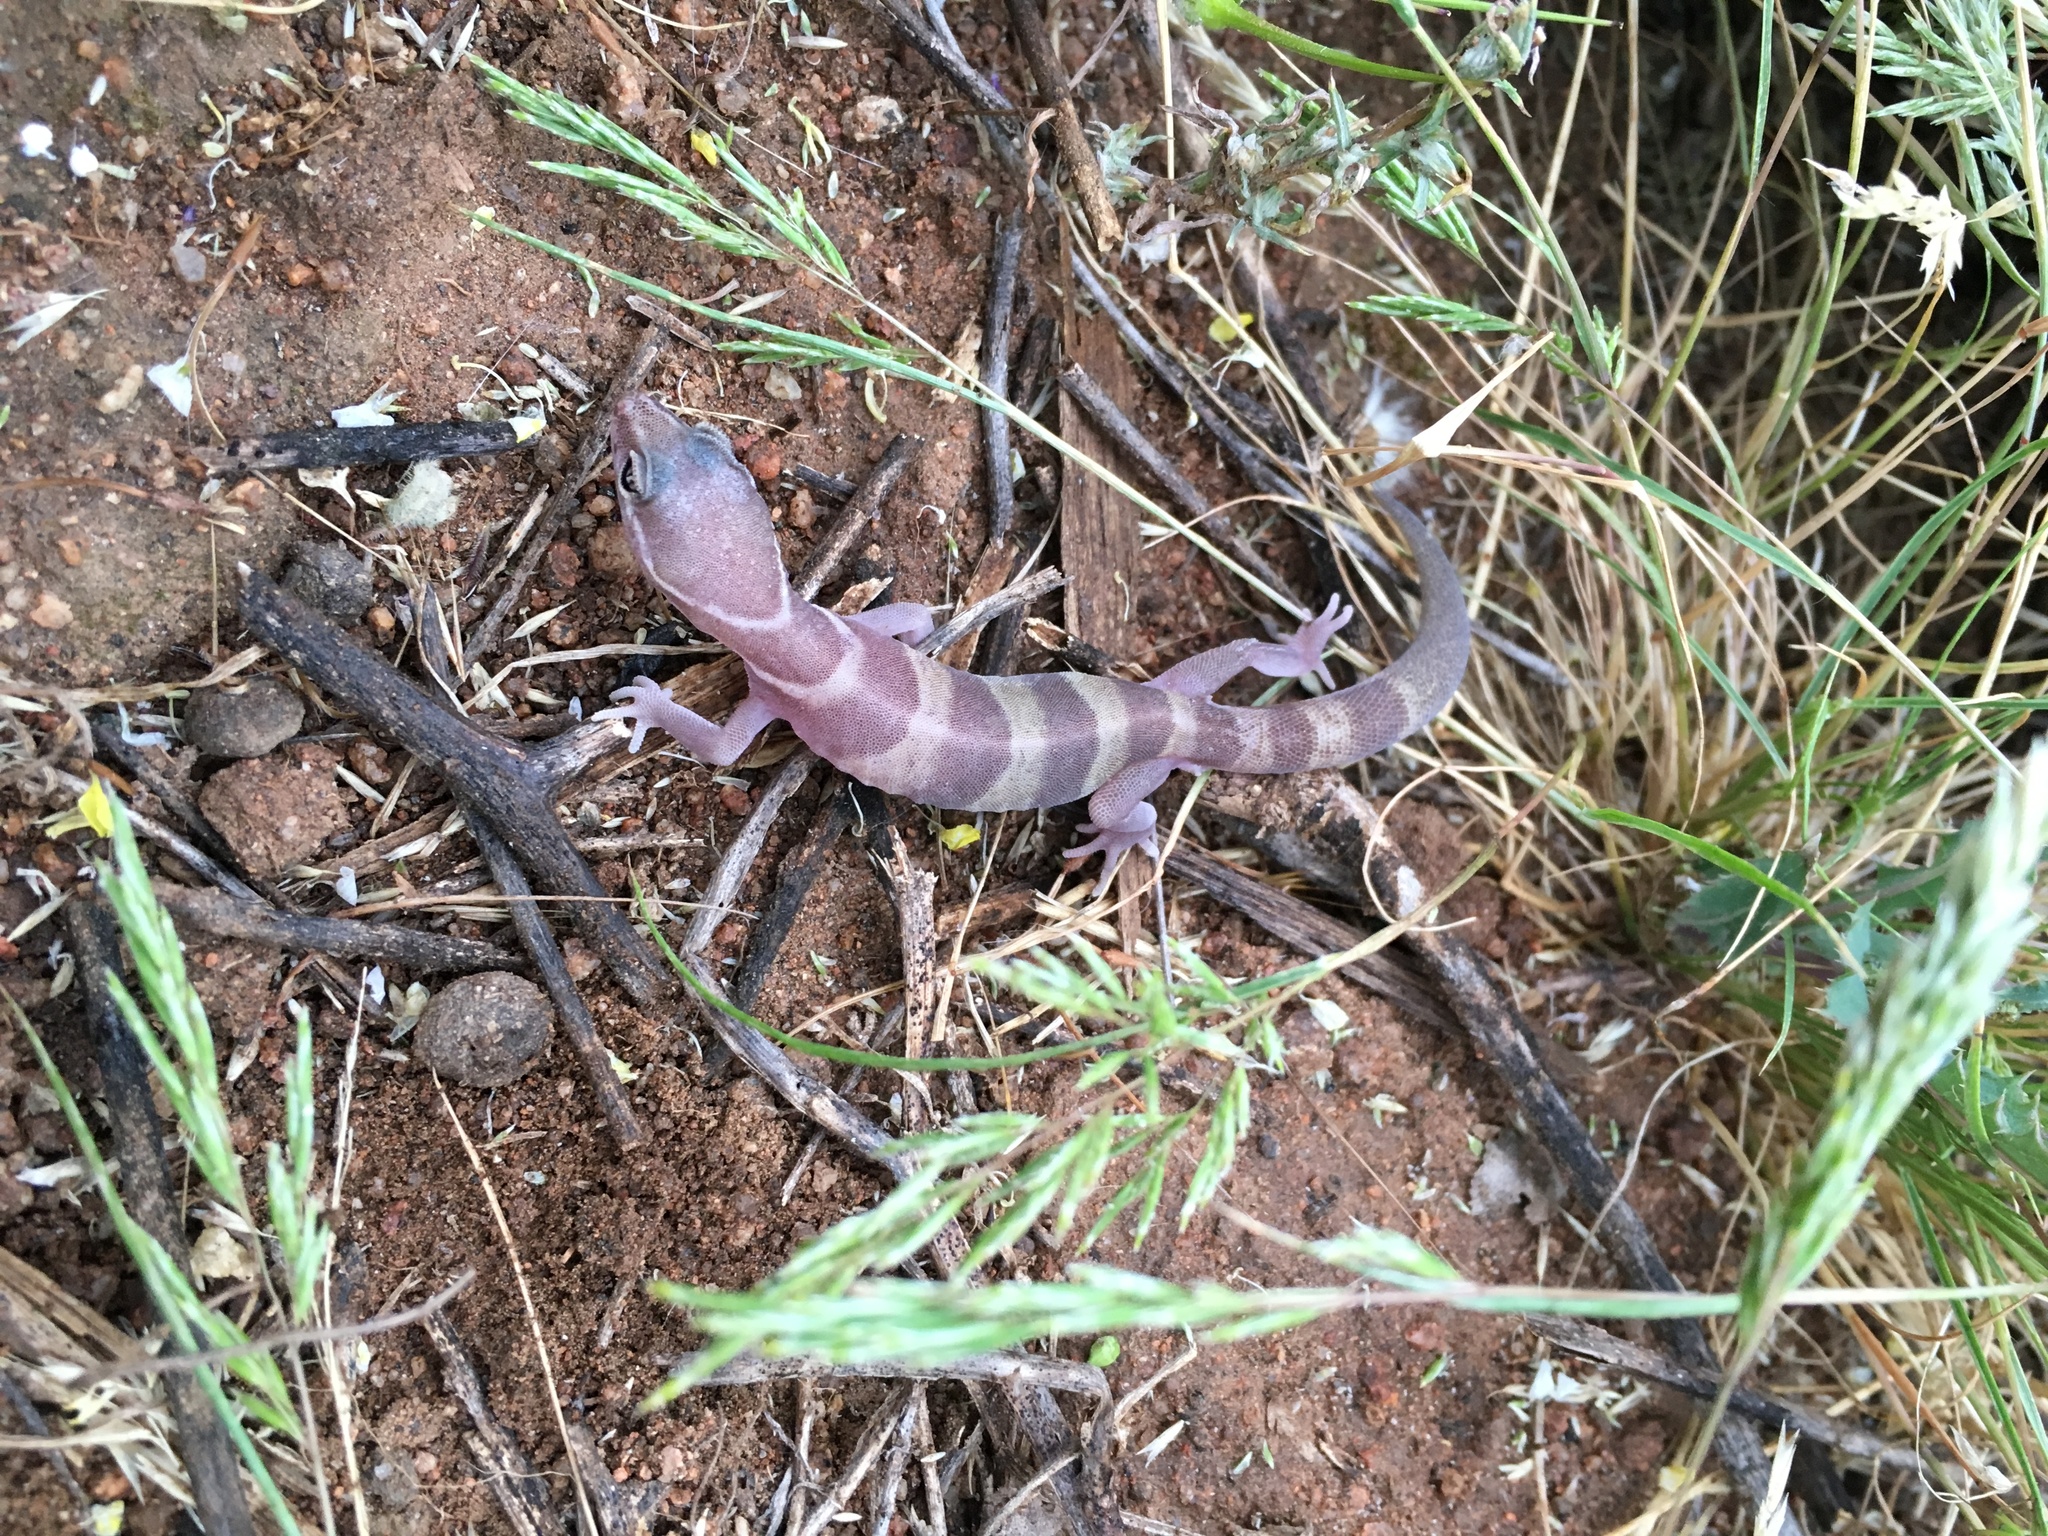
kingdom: Animalia
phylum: Chordata
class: Squamata
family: Eublepharidae
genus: Coleonyx
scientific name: Coleonyx variegatus
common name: Western banded gecko
